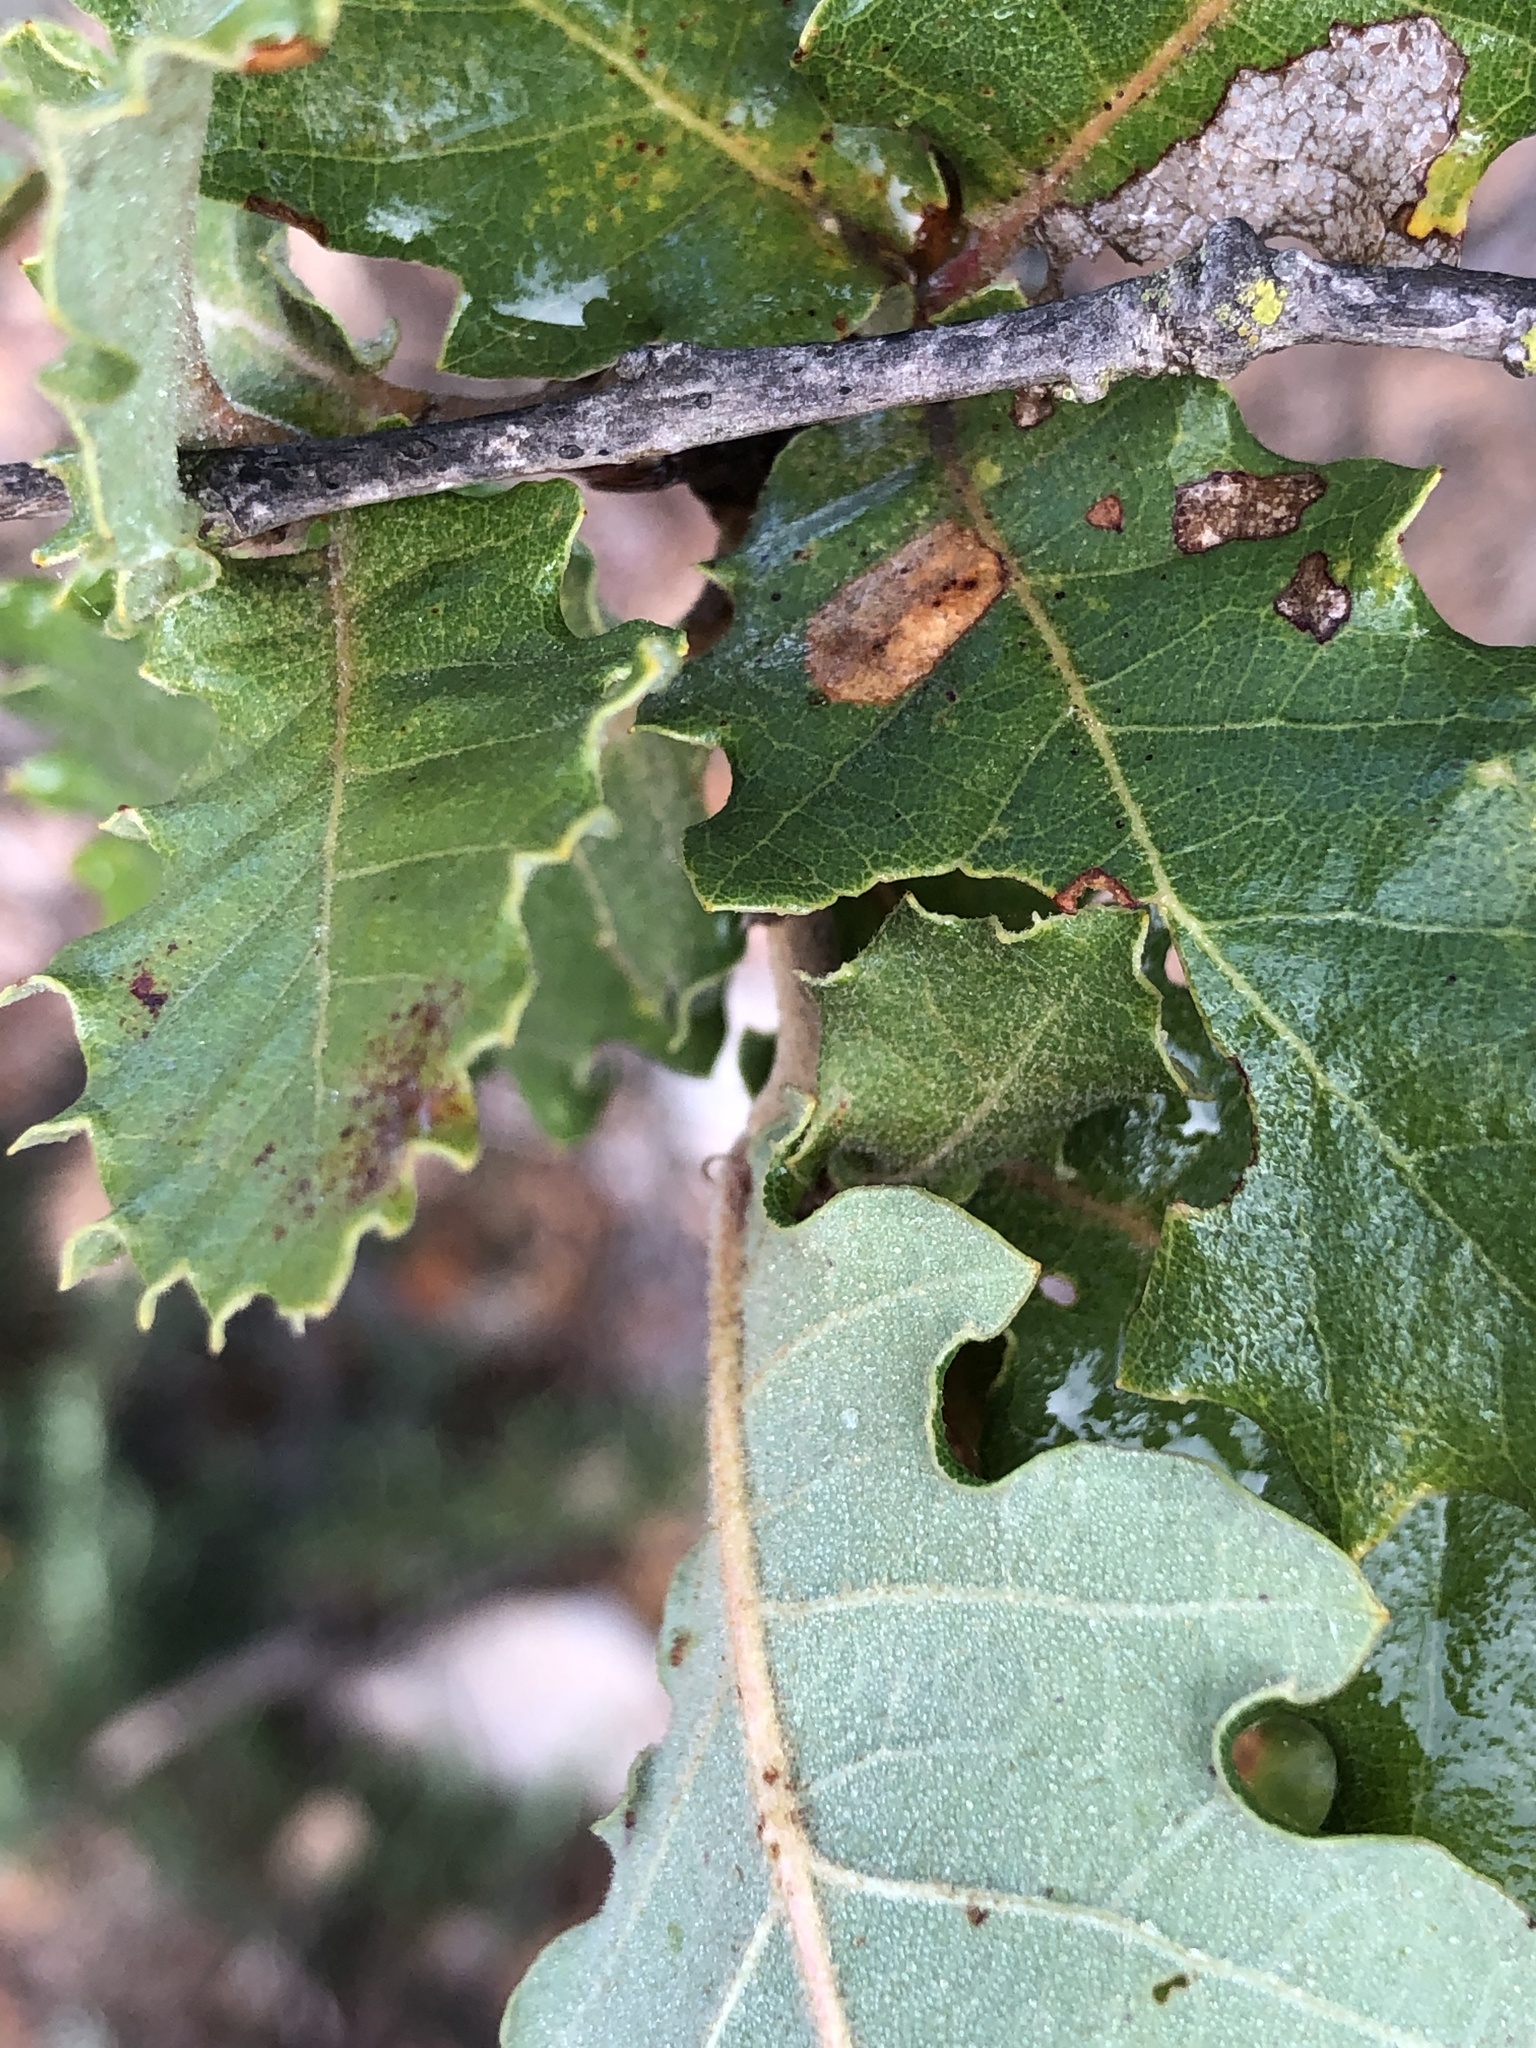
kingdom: Plantae
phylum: Tracheophyta
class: Magnoliopsida
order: Fagales
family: Fagaceae
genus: Quercus
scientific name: Quercus pubescens
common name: Downy oak
